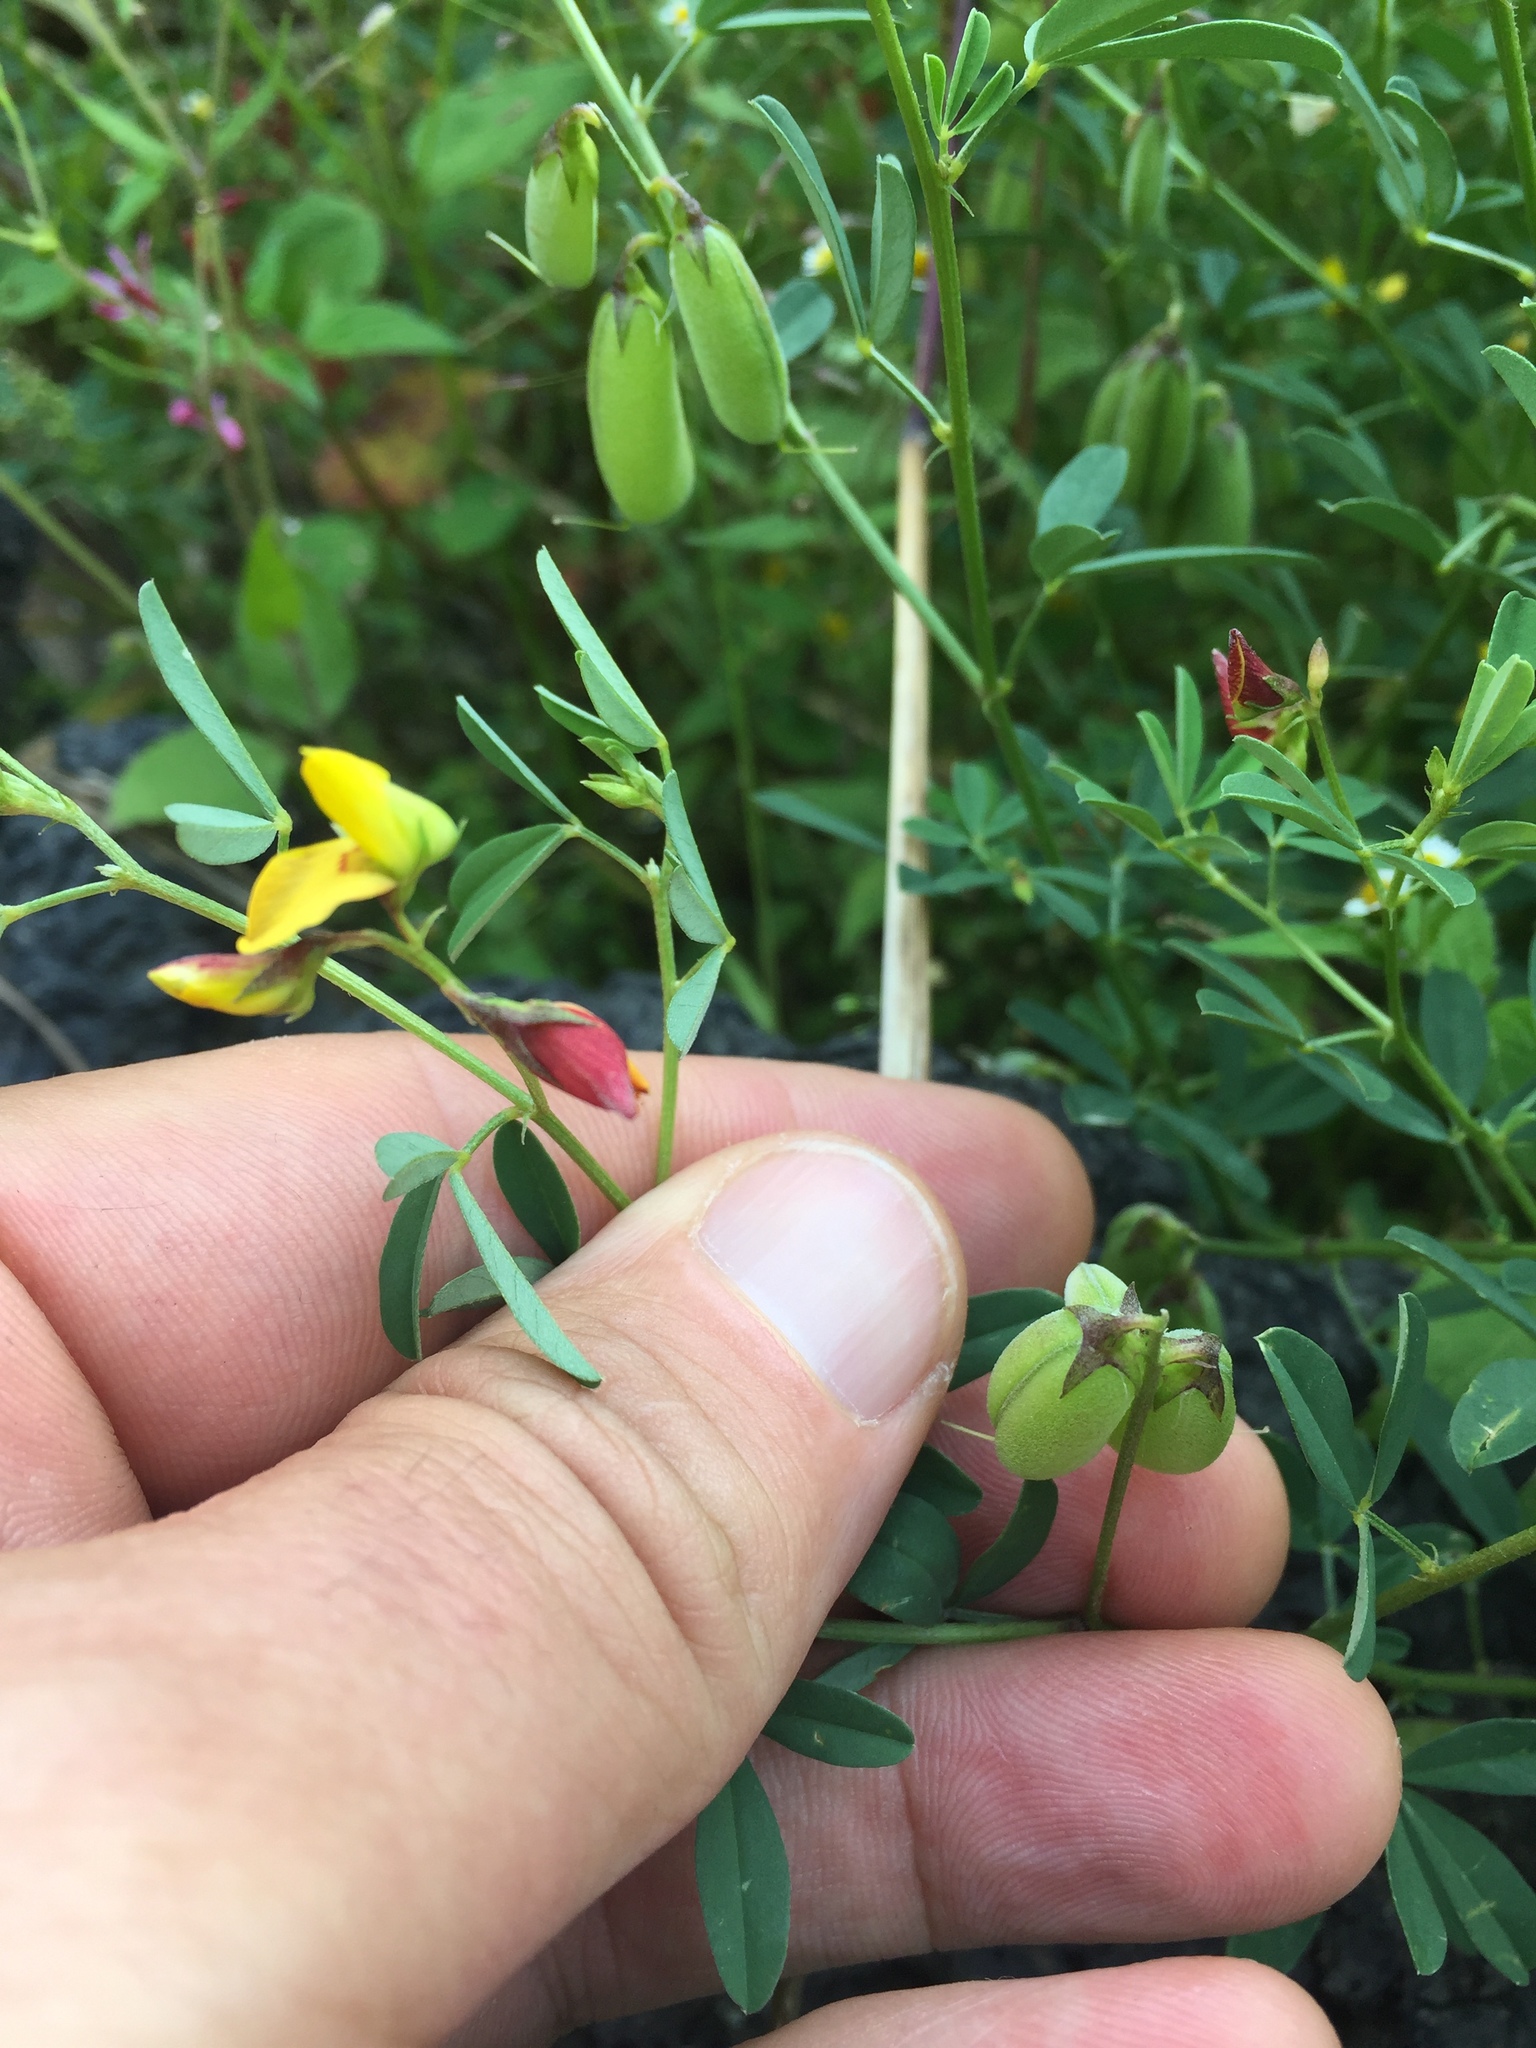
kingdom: Plantae
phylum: Tracheophyta
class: Magnoliopsida
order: Fabales
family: Fabaceae
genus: Crotalaria
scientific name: Crotalaria pumila
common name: Low rattlebox
